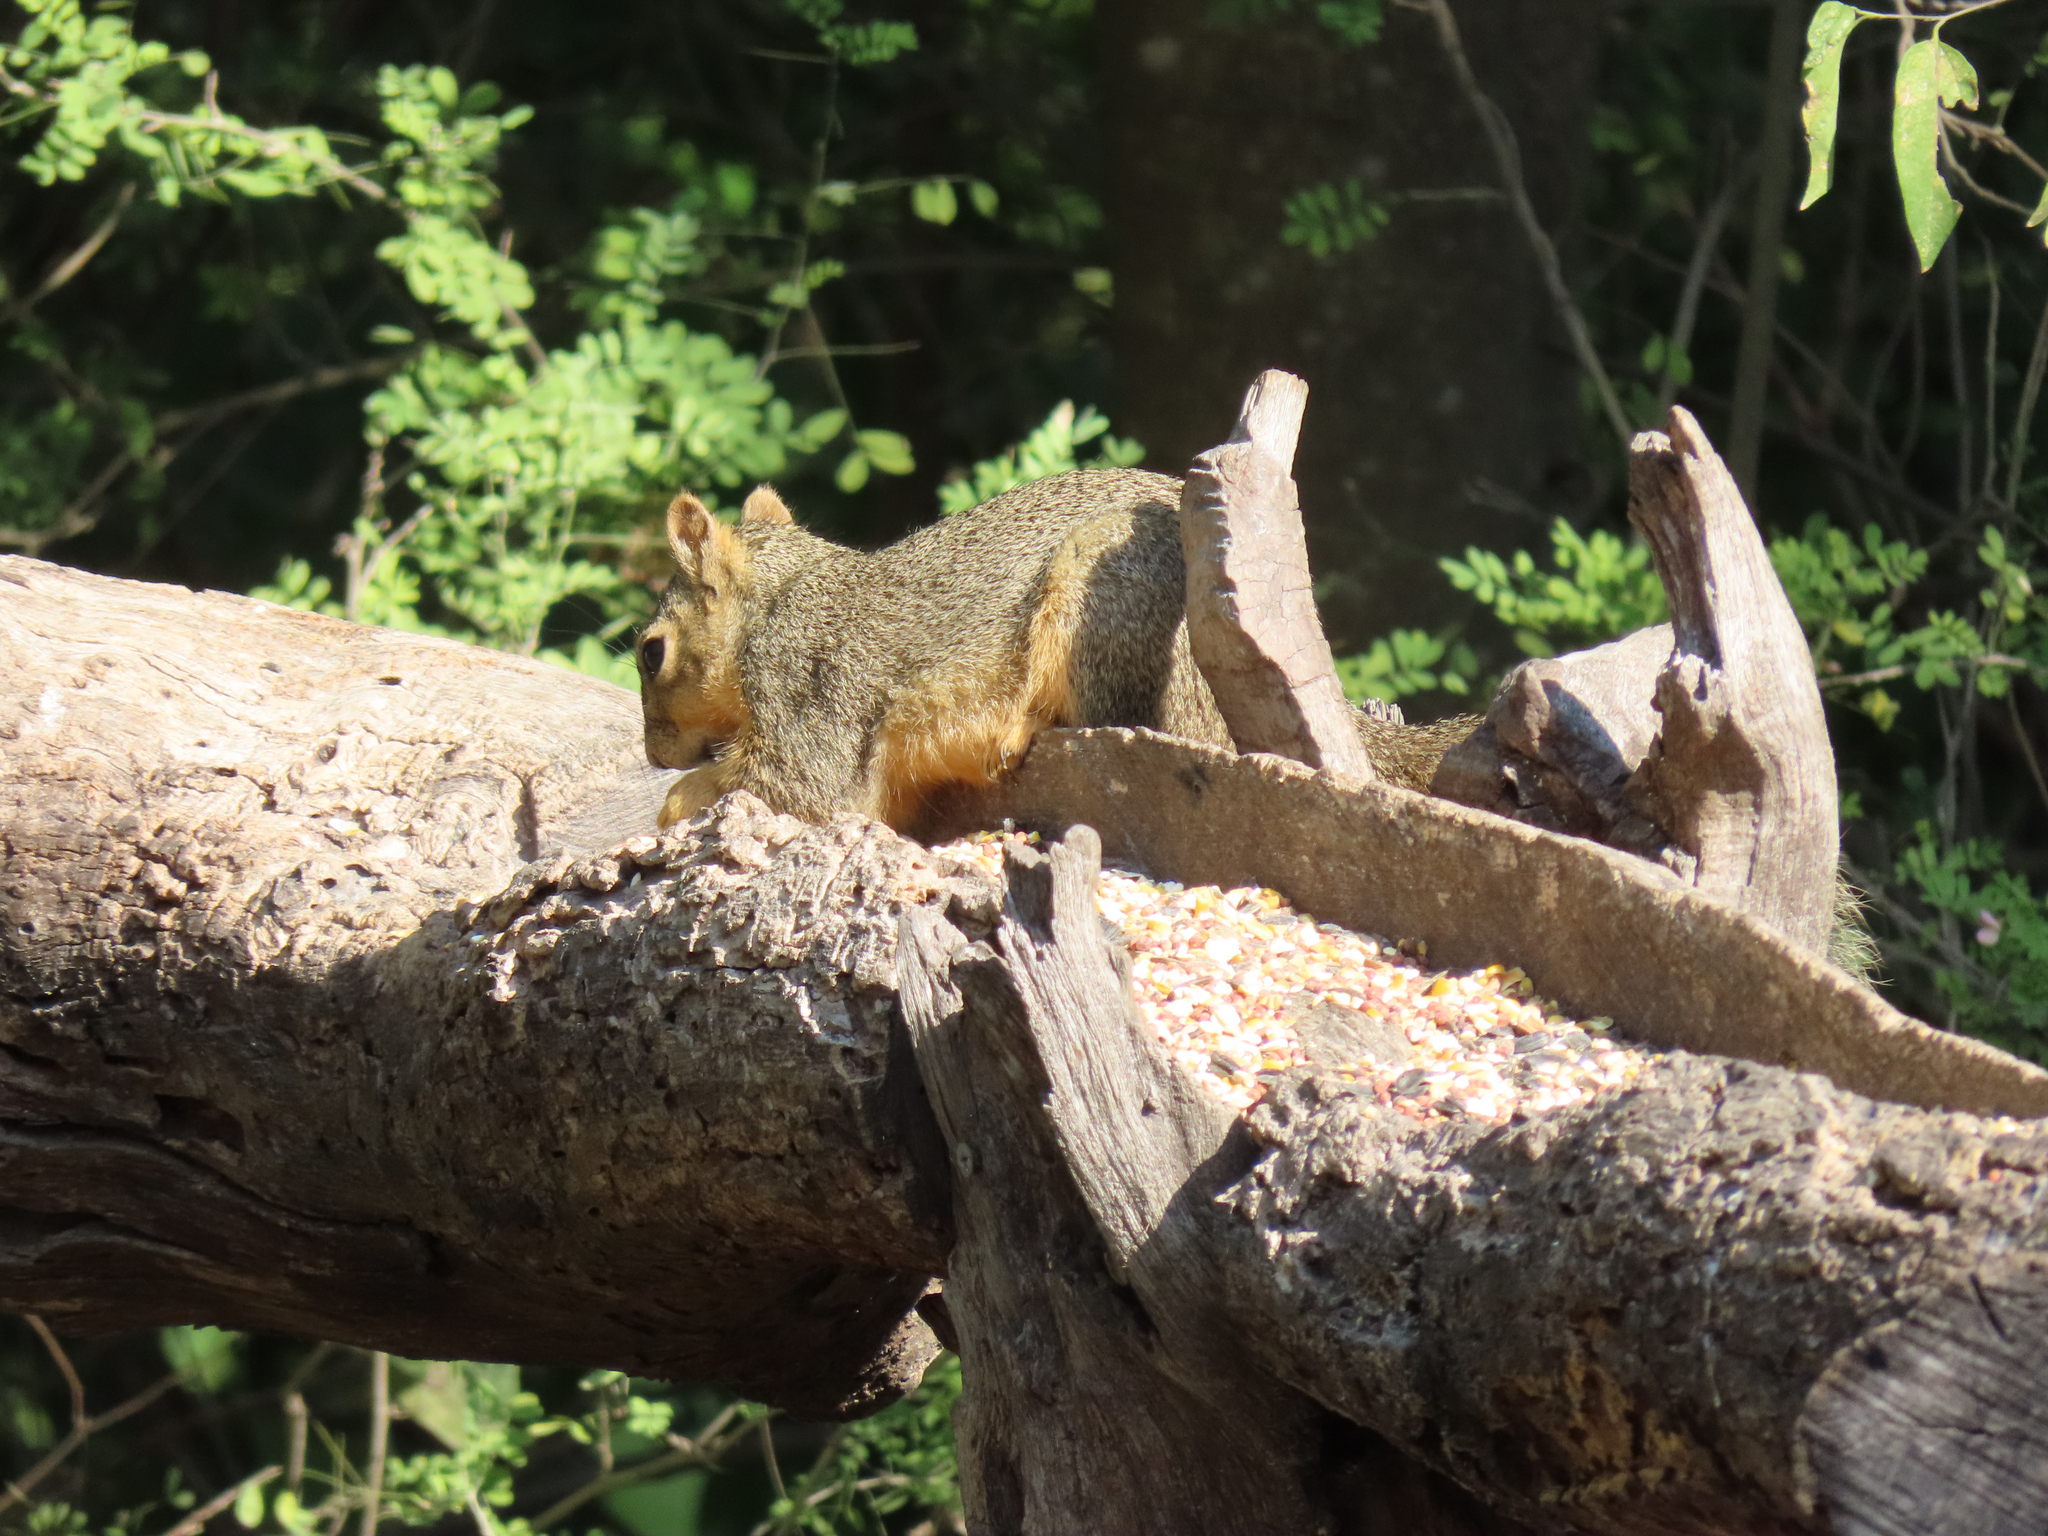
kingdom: Animalia
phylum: Chordata
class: Mammalia
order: Rodentia
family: Sciuridae
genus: Sciurus
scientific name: Sciurus niger
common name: Fox squirrel
